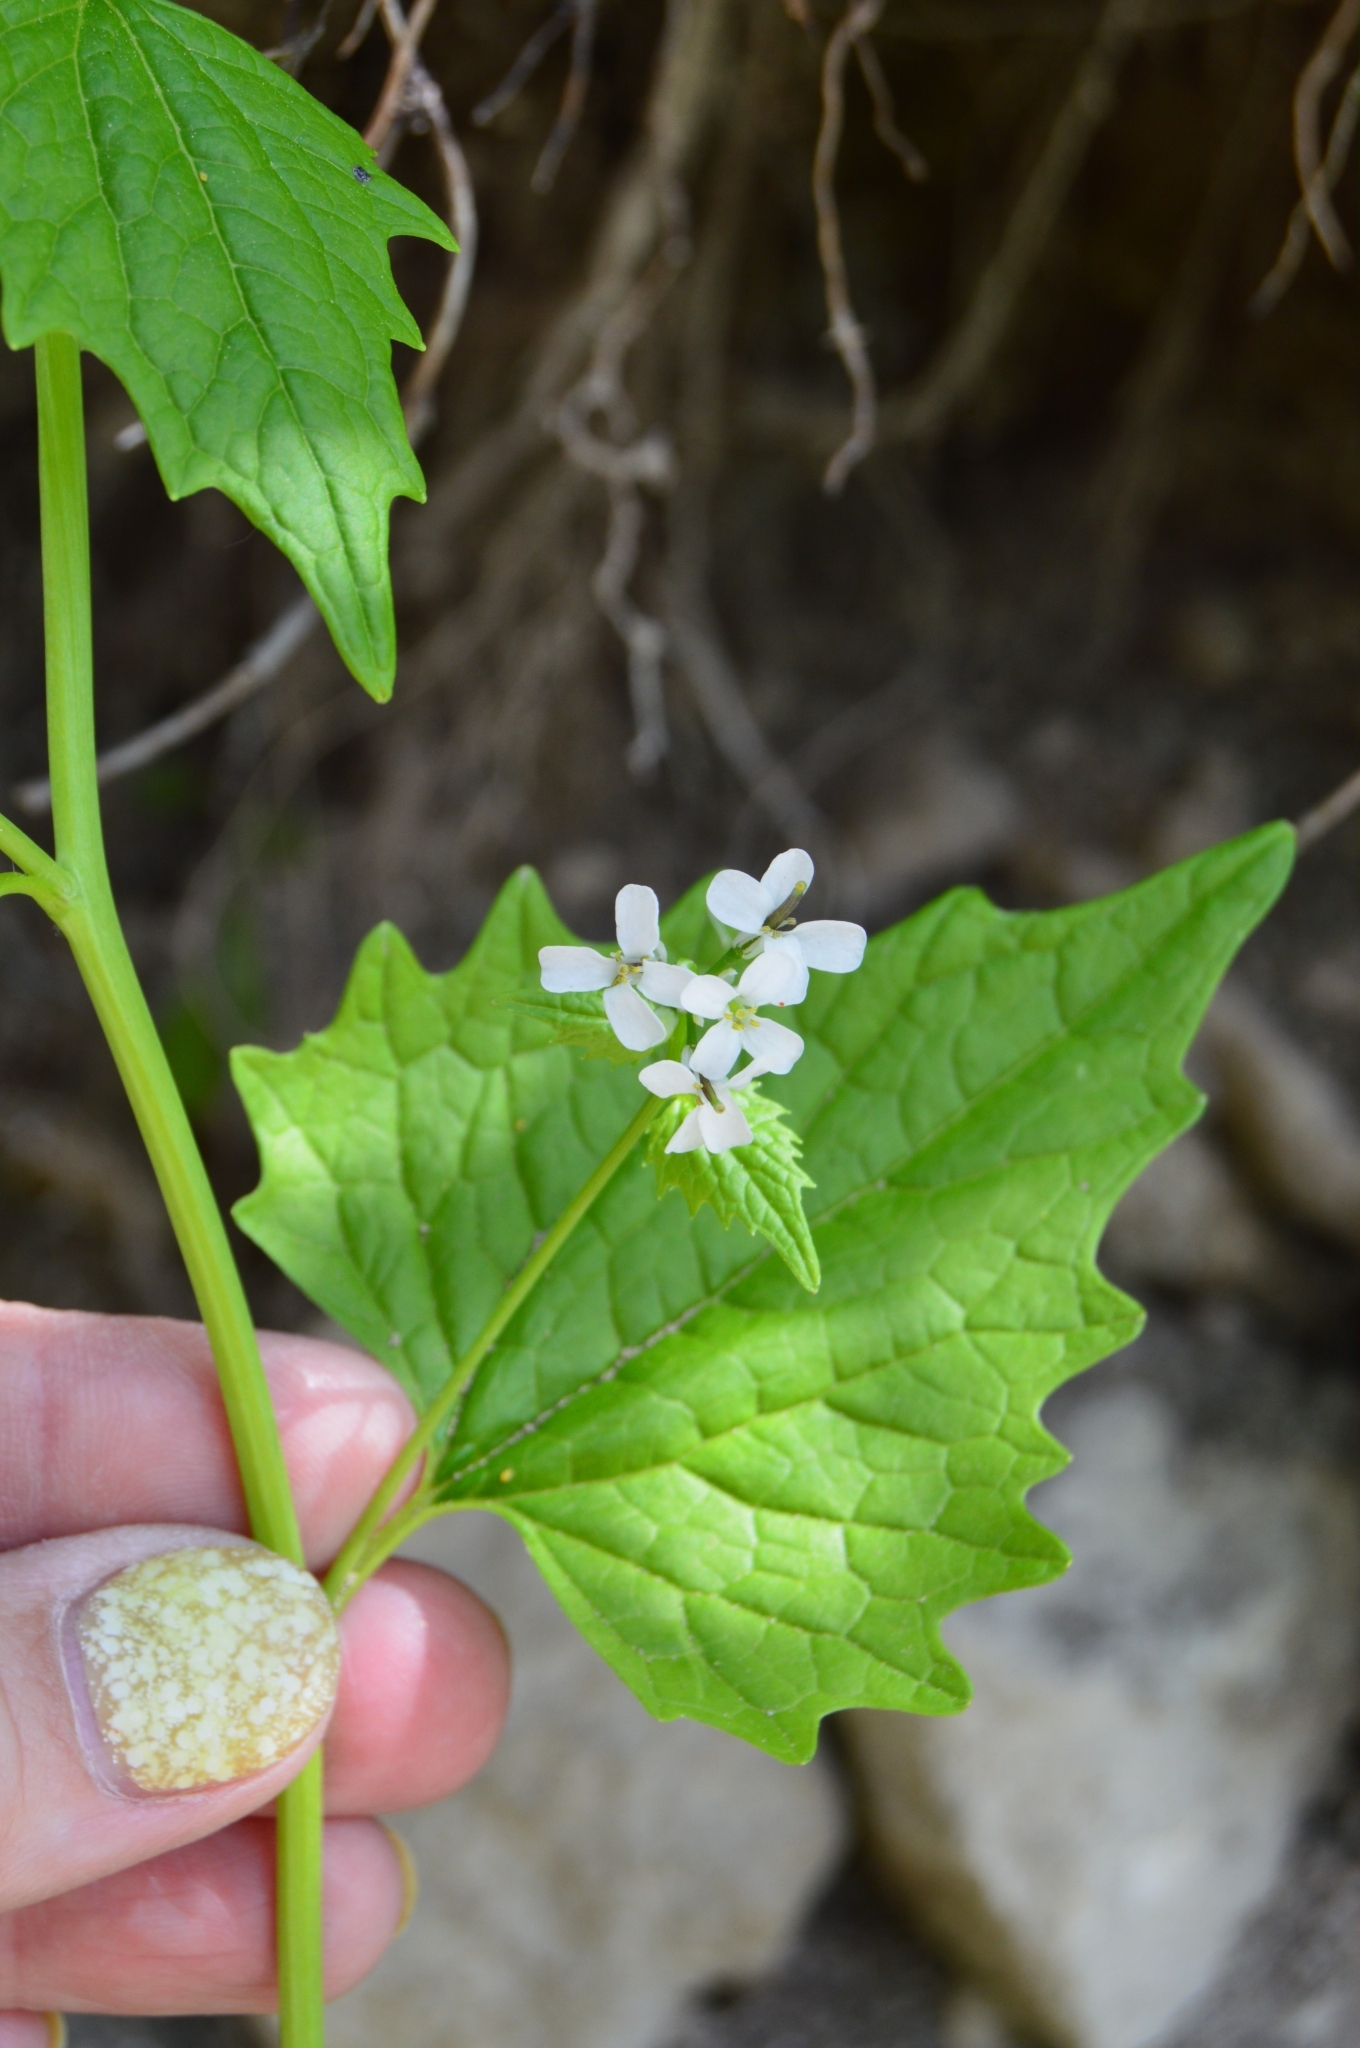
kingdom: Plantae
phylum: Tracheophyta
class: Magnoliopsida
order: Brassicales
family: Brassicaceae
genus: Alliaria
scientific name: Alliaria petiolata
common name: Garlic mustard
